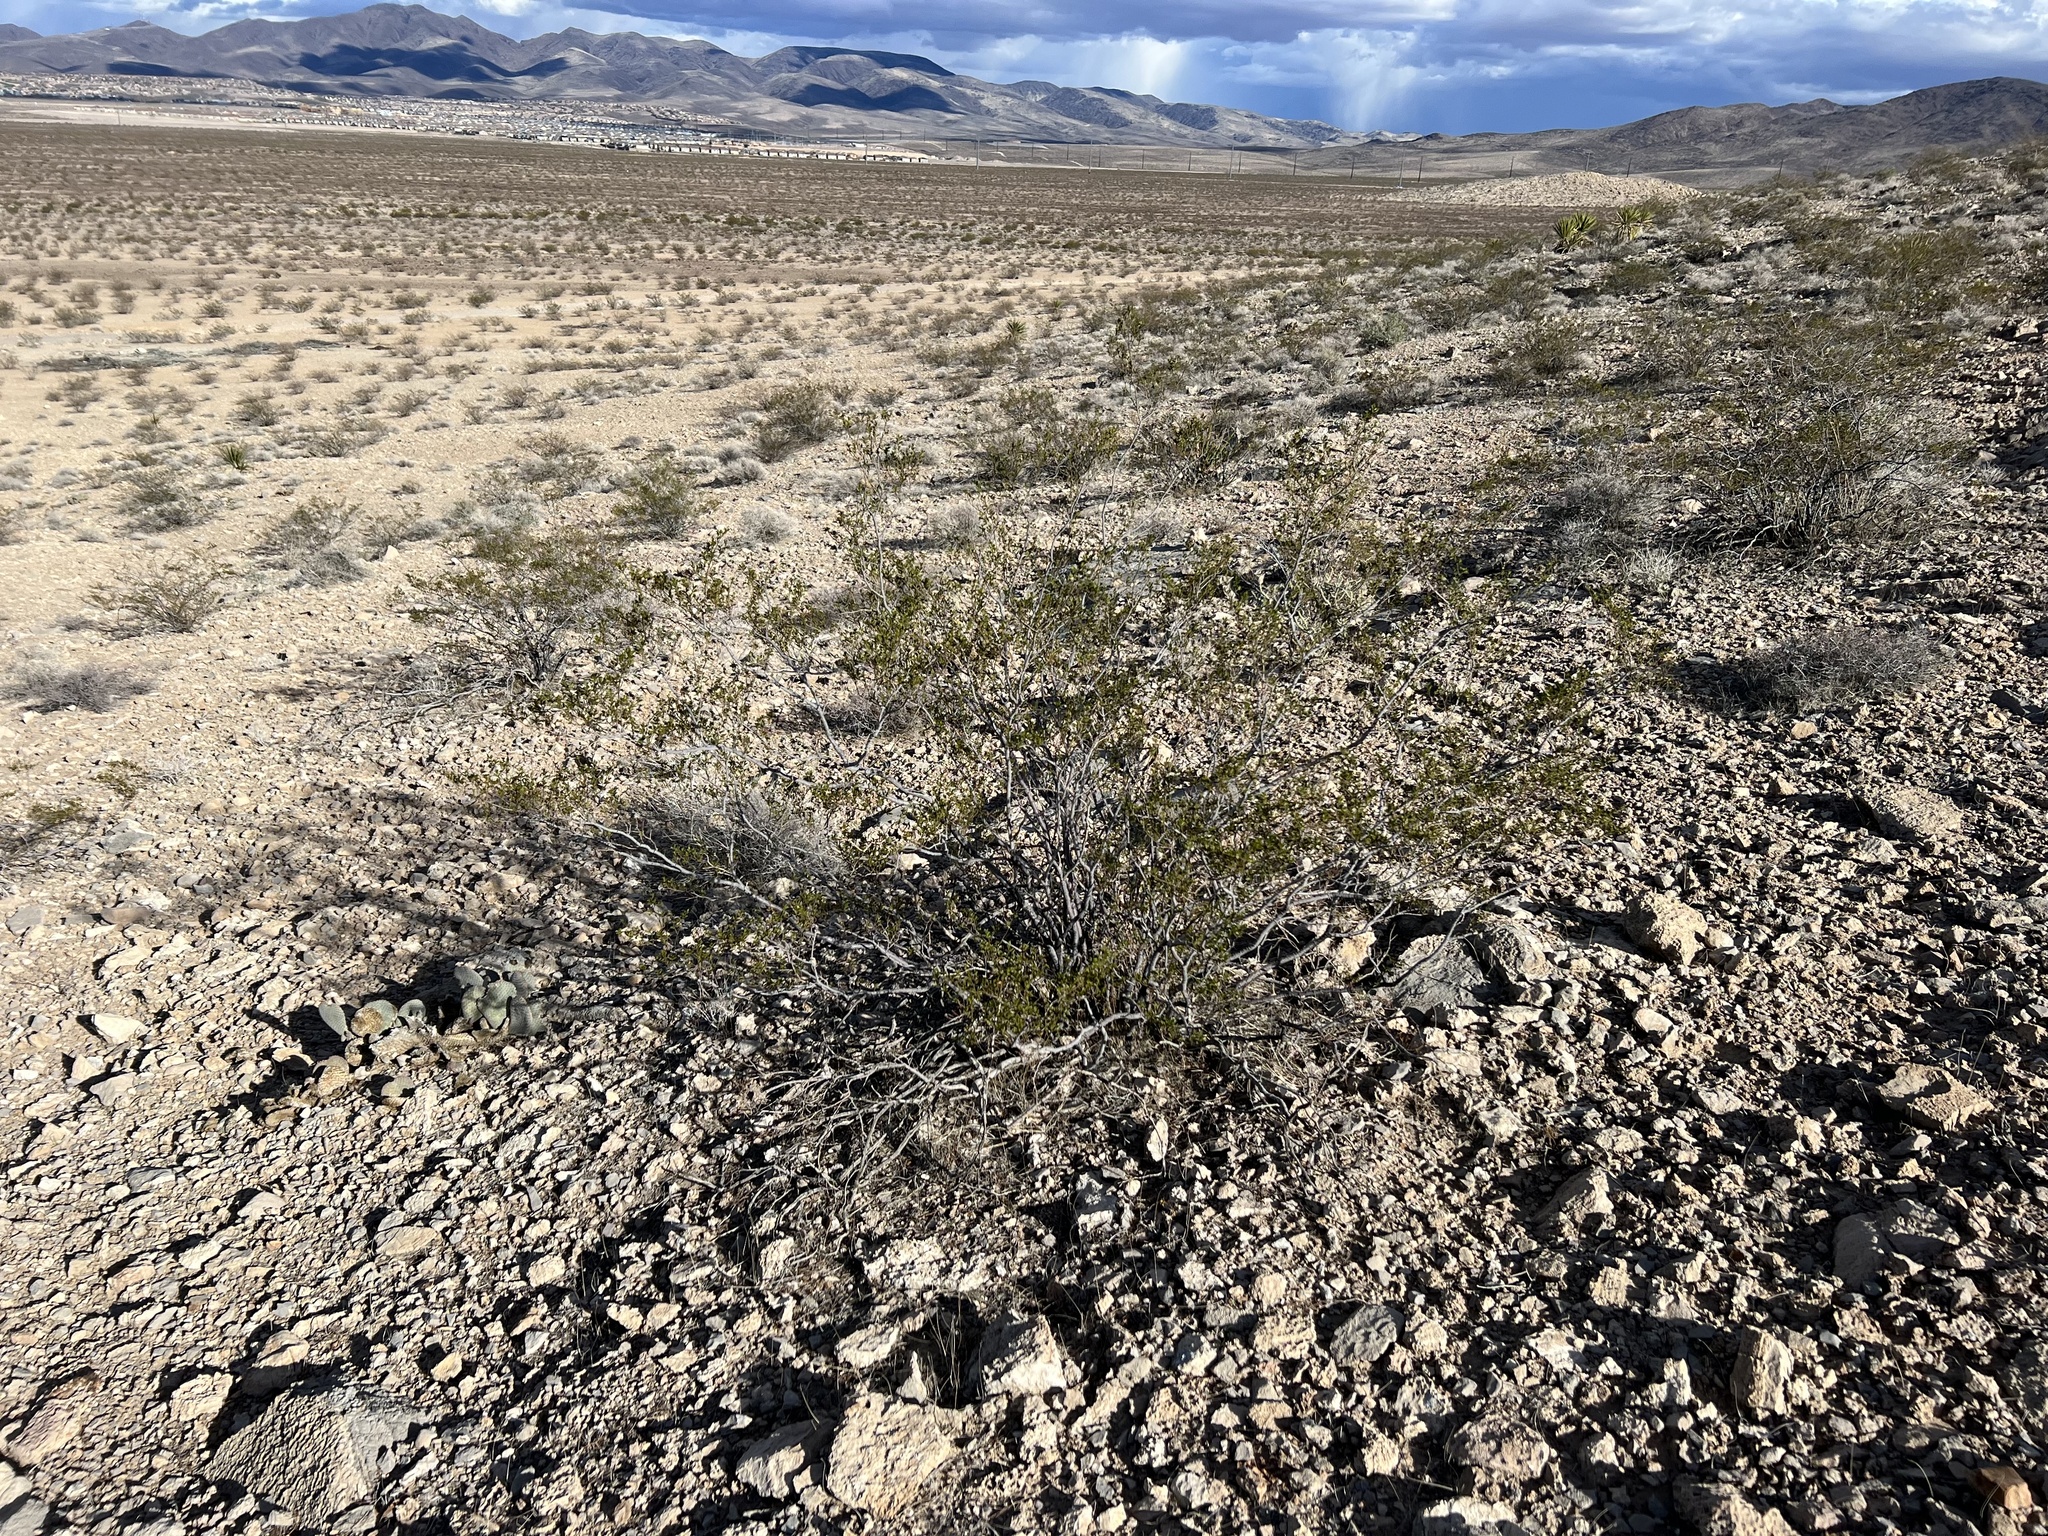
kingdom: Plantae
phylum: Tracheophyta
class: Magnoliopsida
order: Zygophyllales
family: Zygophyllaceae
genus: Larrea
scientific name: Larrea tridentata
